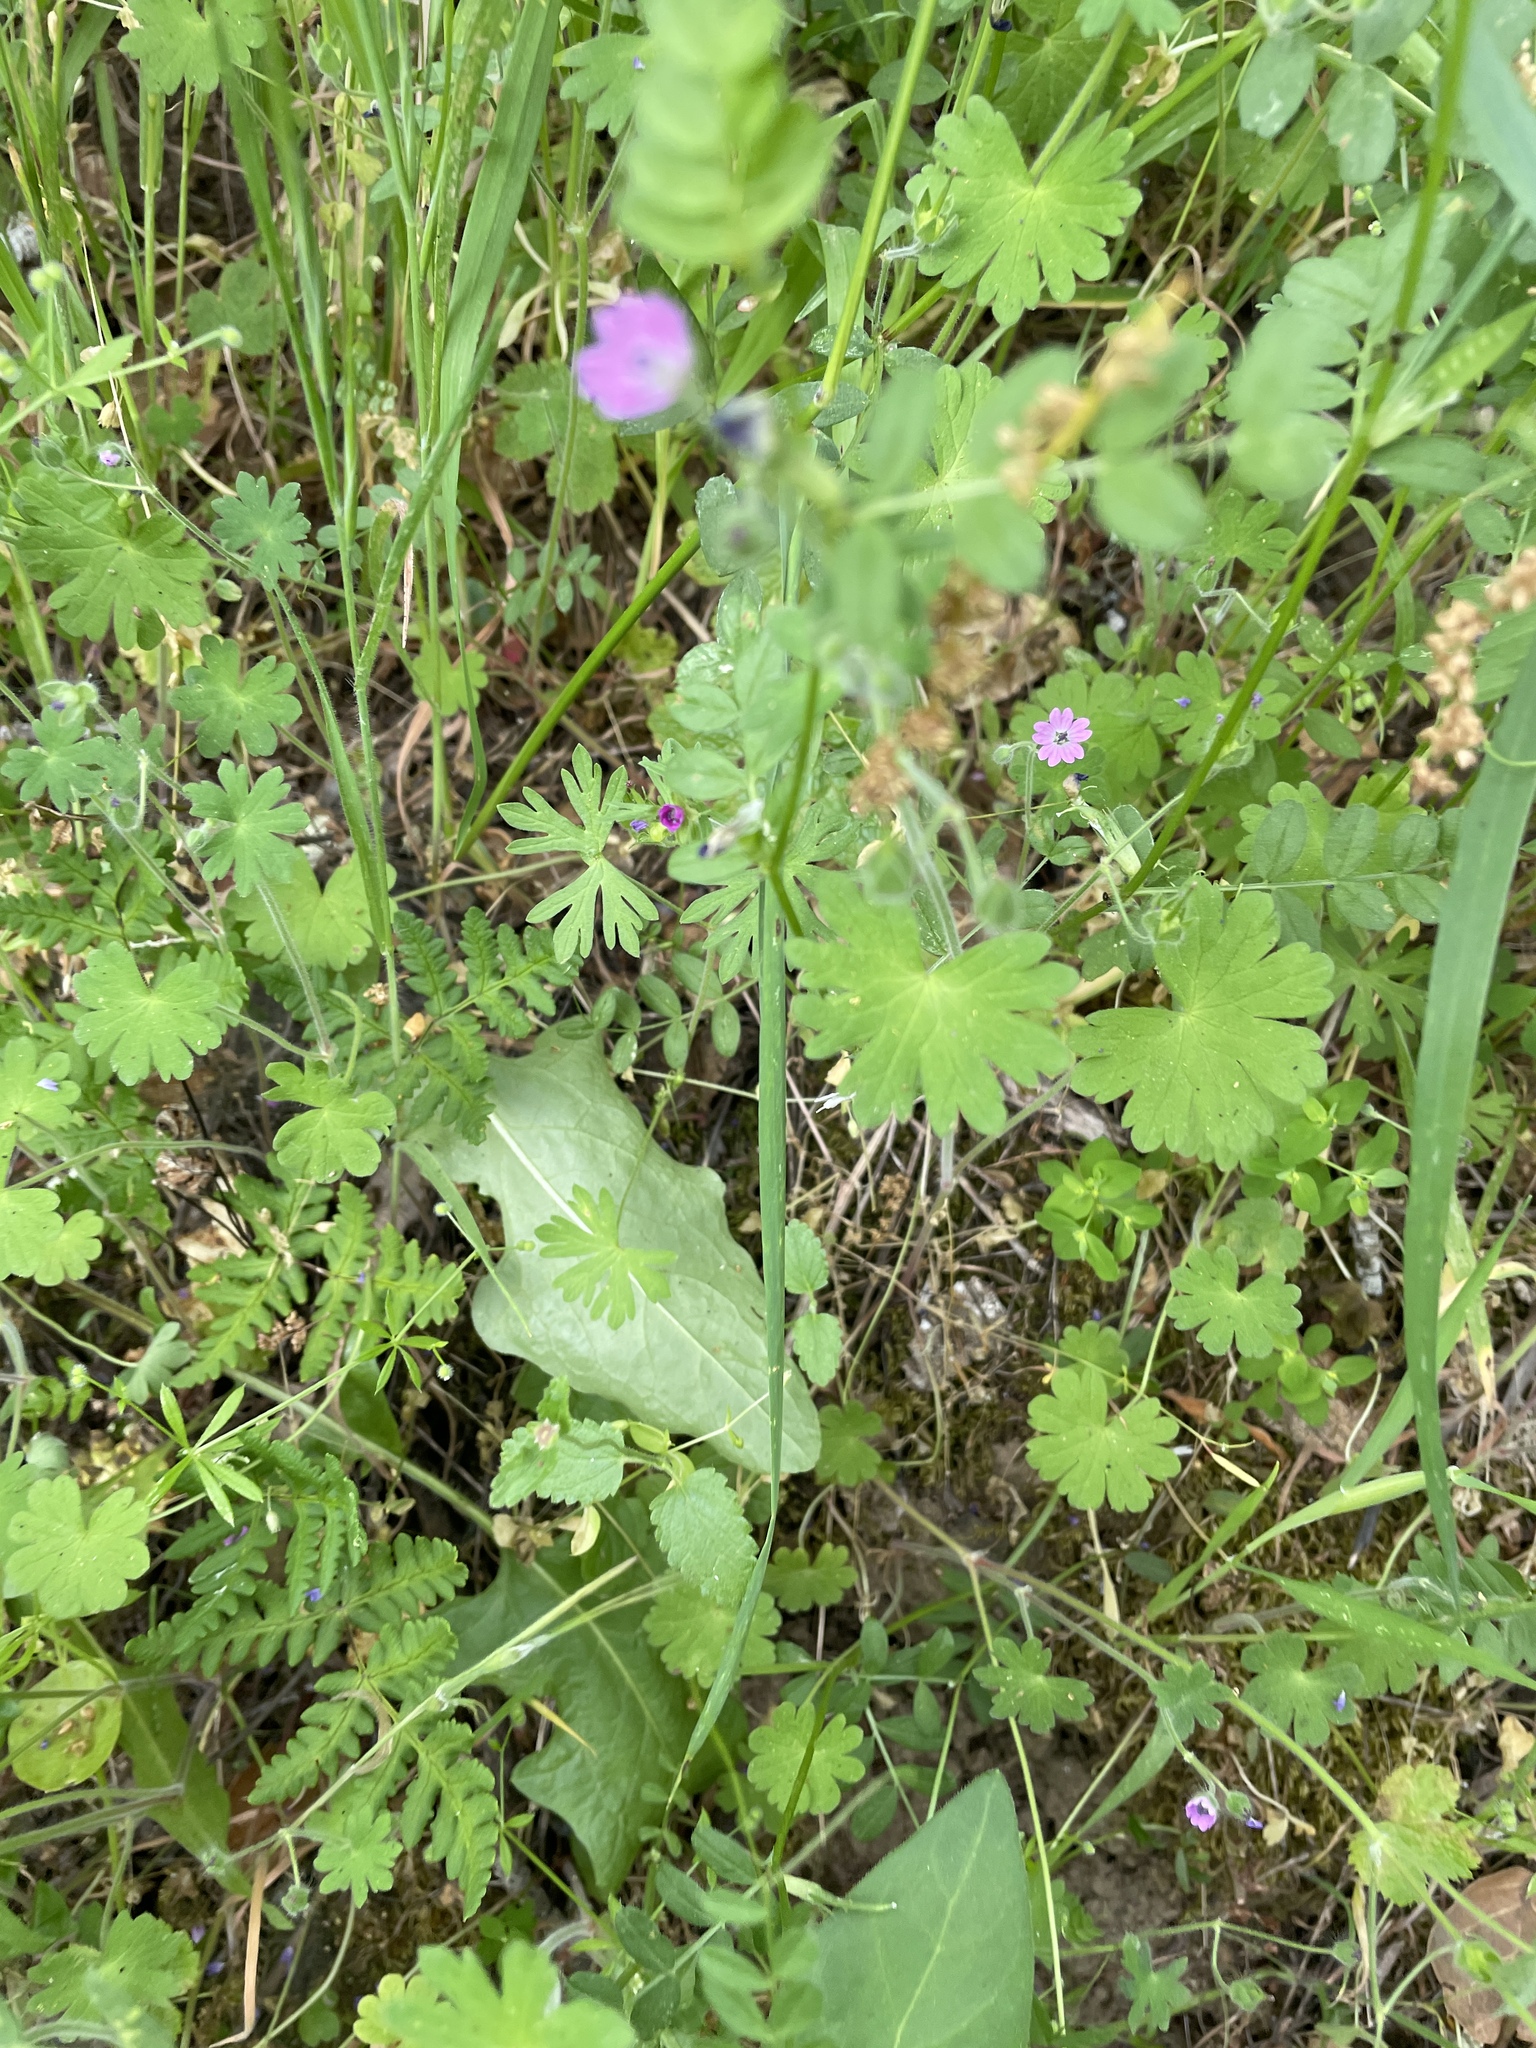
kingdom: Plantae
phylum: Tracheophyta
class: Magnoliopsida
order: Geraniales
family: Geraniaceae
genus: Geranium
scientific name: Geranium molle
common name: Dove's-foot crane's-bill
